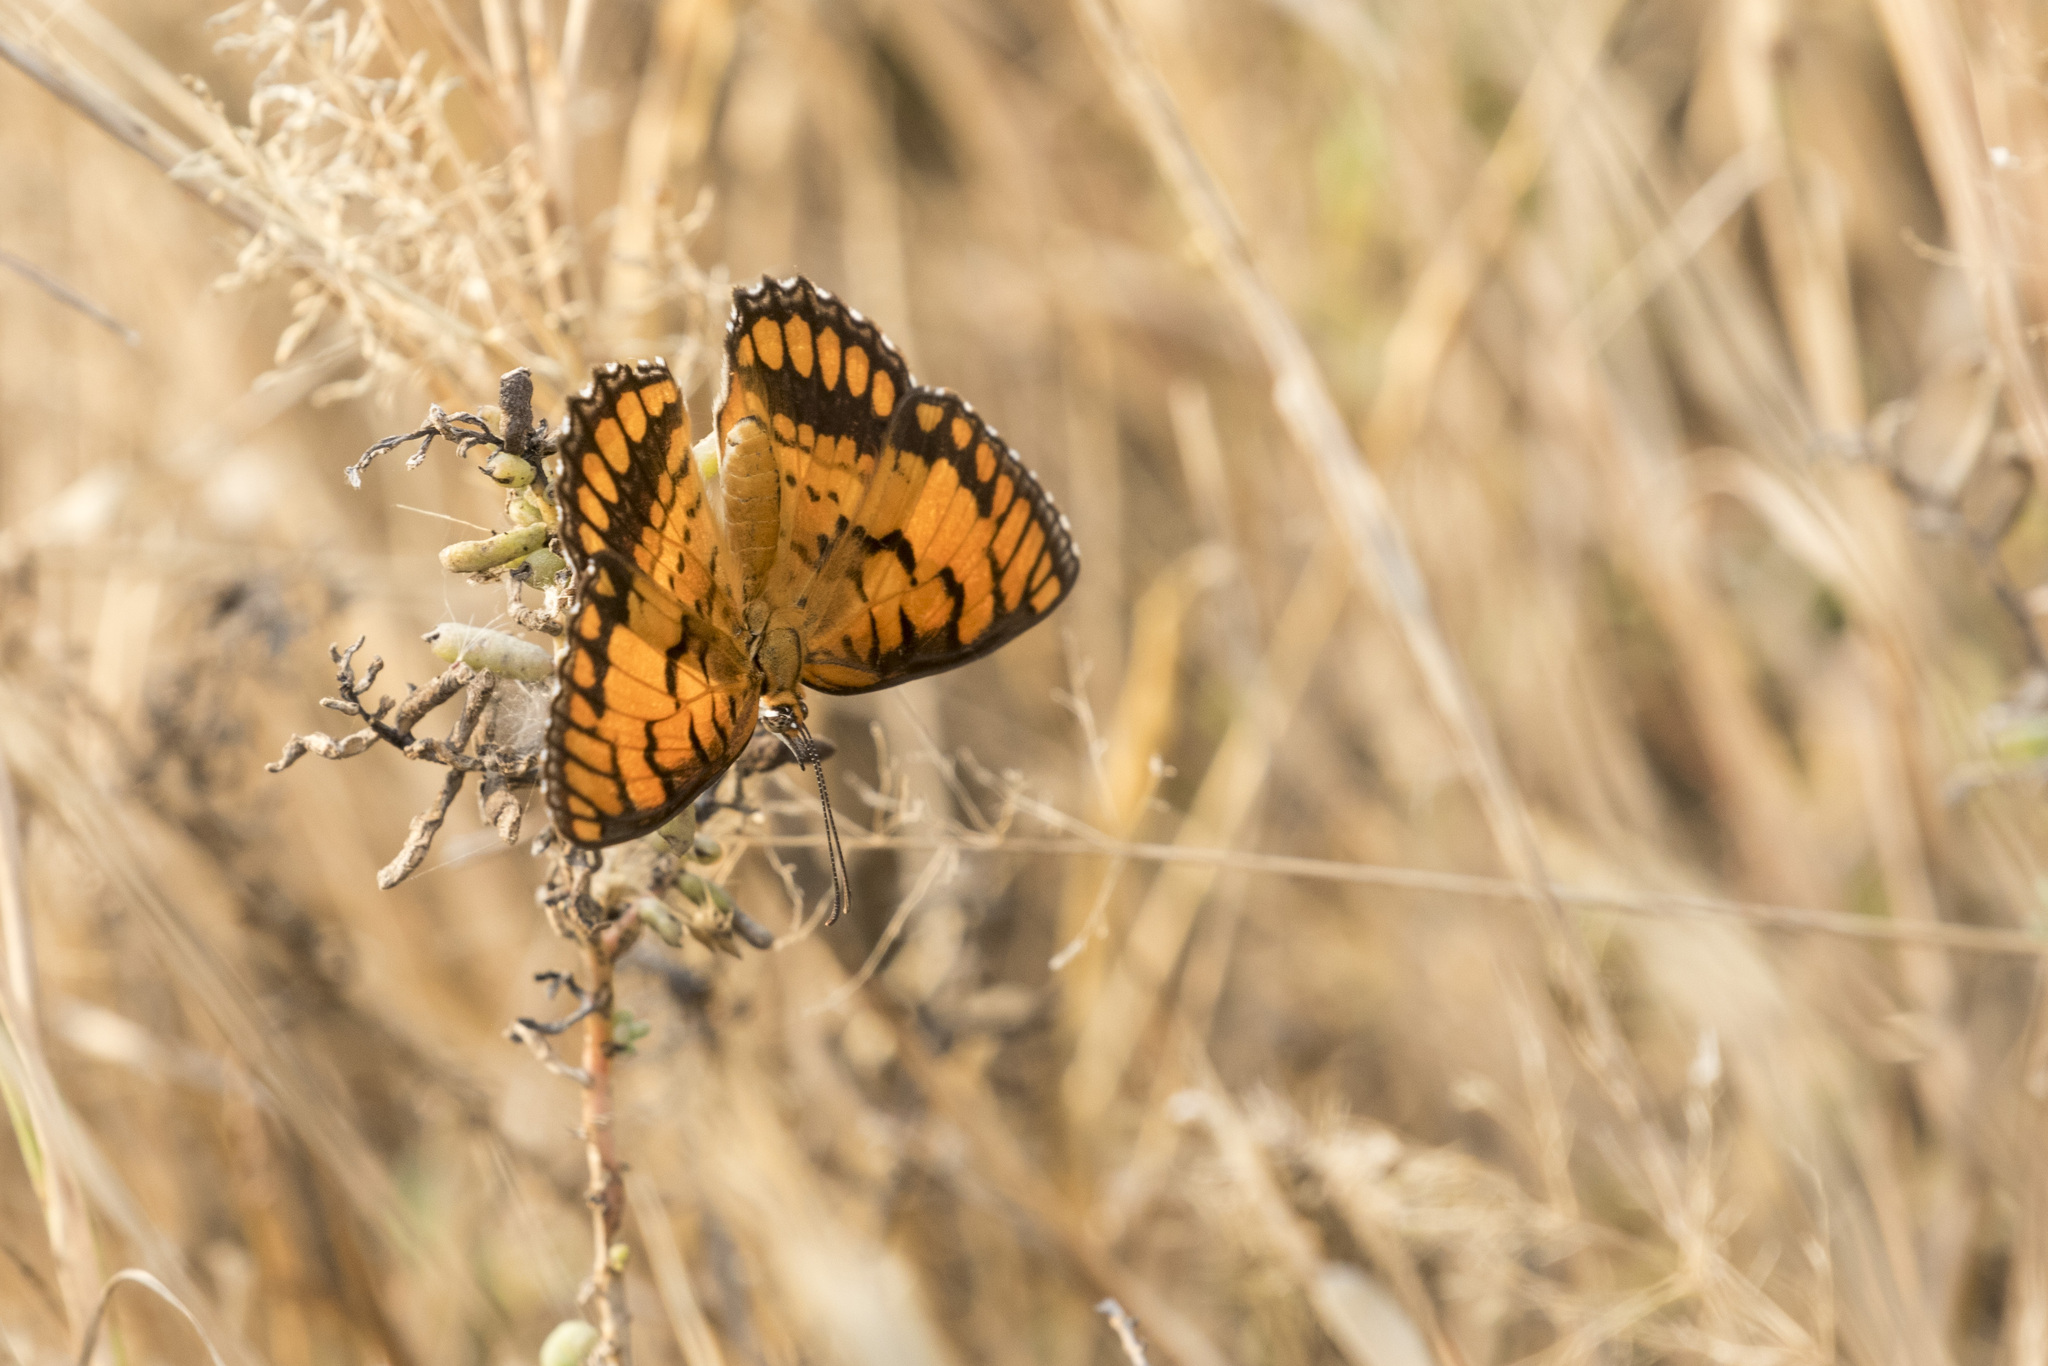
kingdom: Animalia
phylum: Arthropoda
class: Insecta
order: Lepidoptera
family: Nymphalidae
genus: Byblia
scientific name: Byblia ilithyia
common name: Spotted joker
